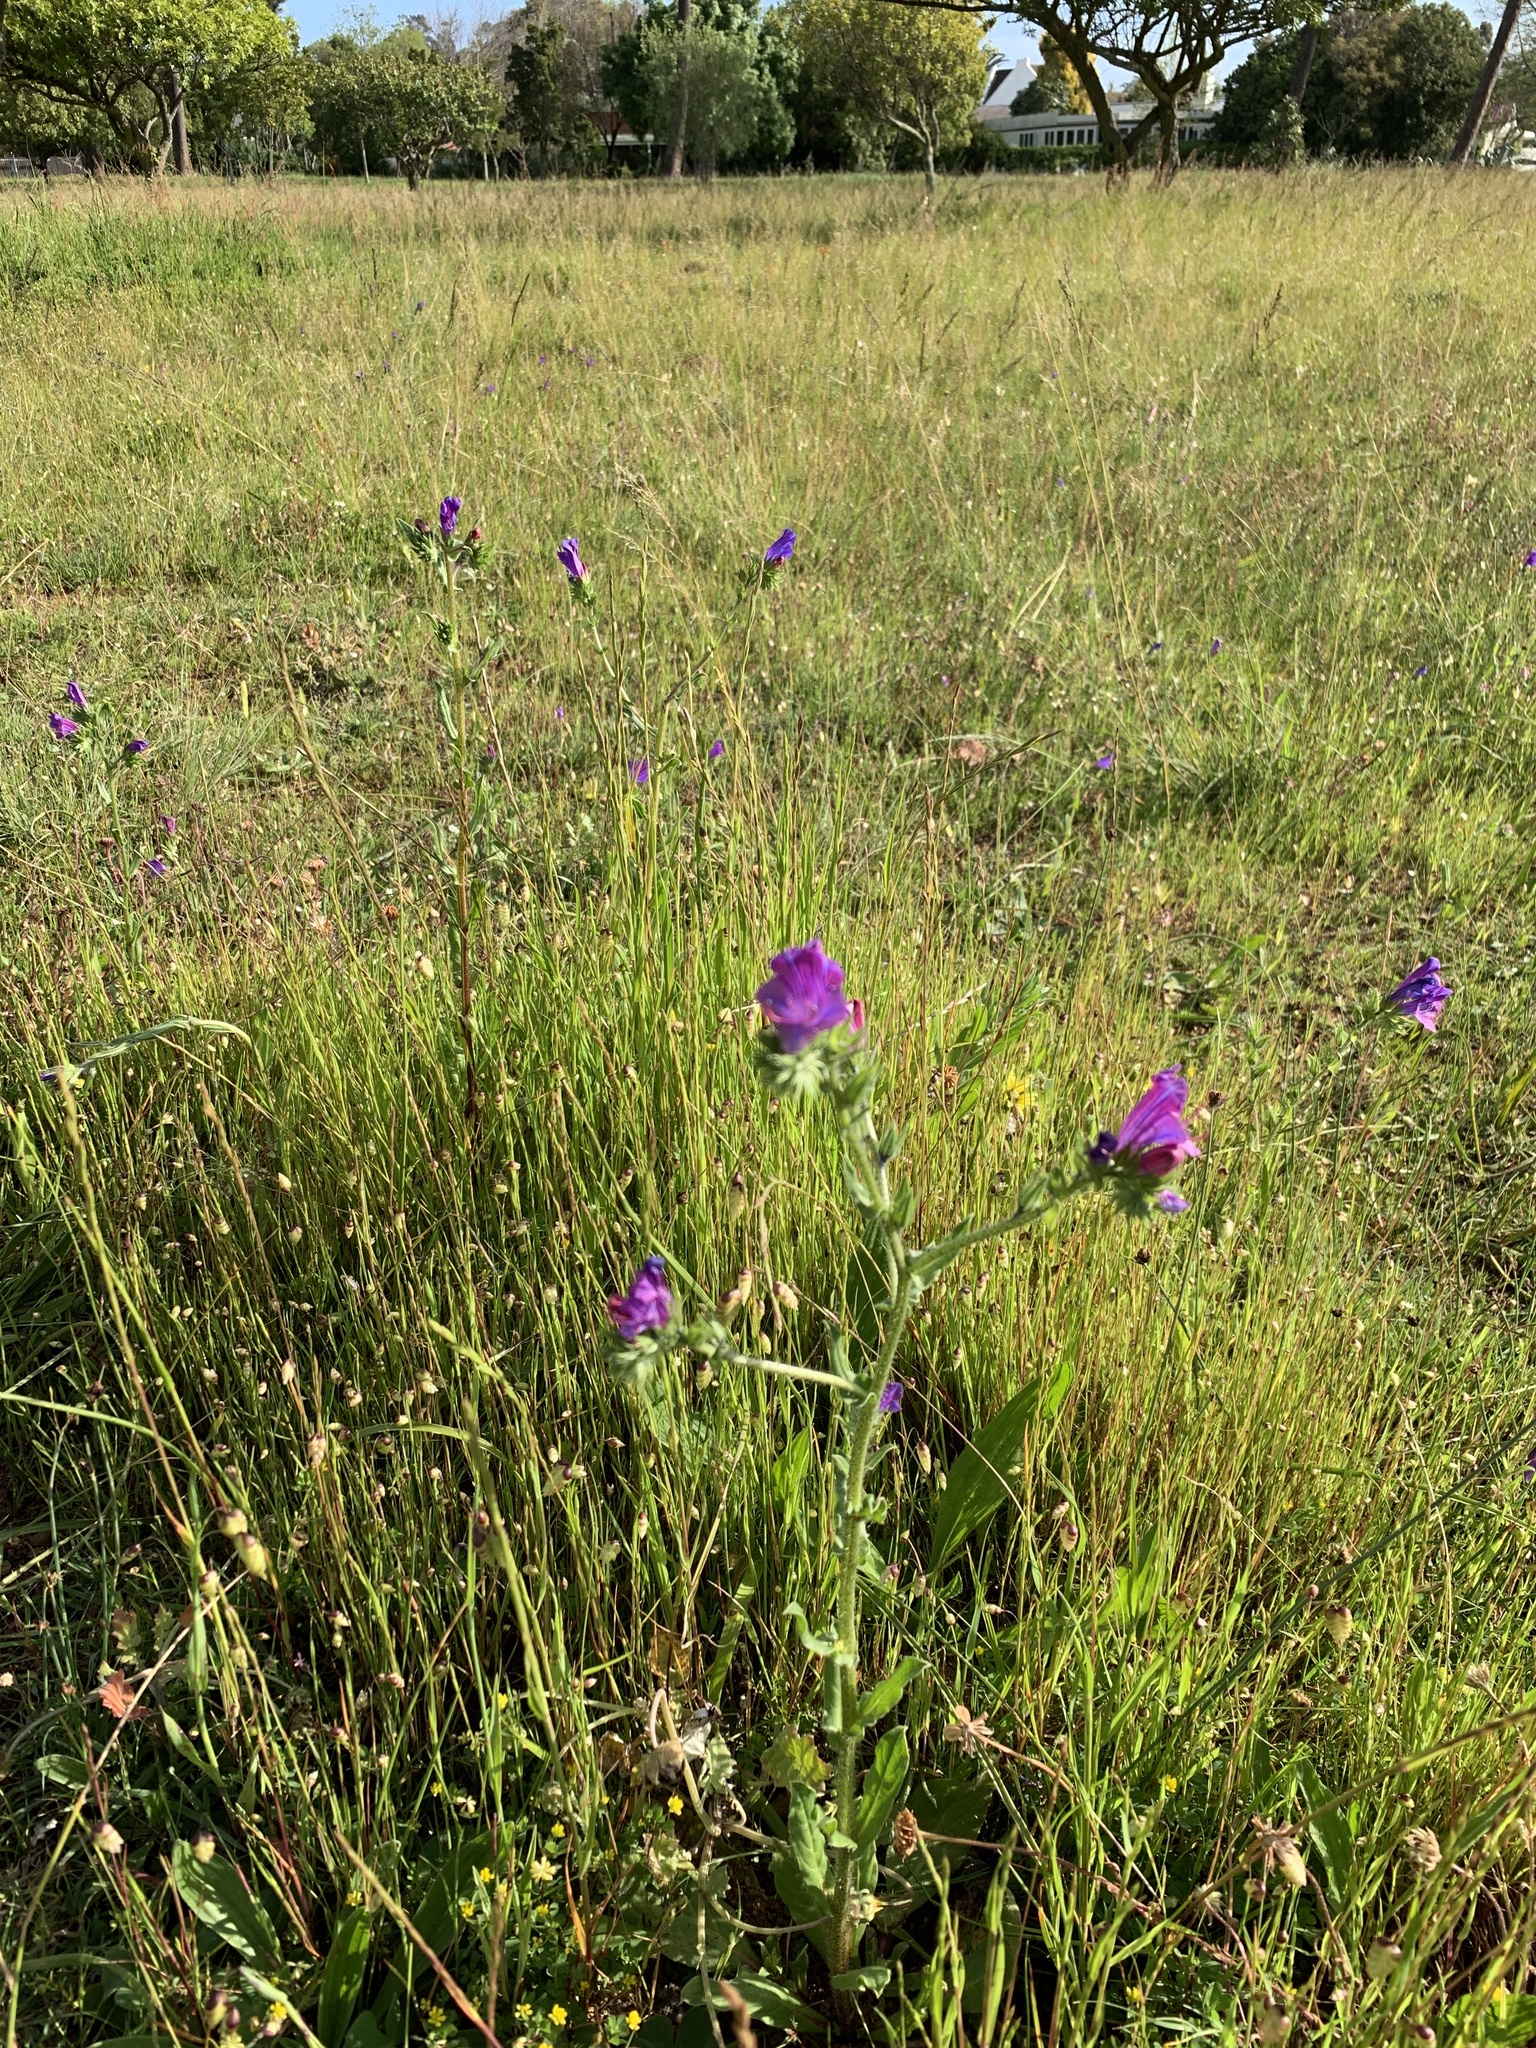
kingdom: Plantae
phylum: Tracheophyta
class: Magnoliopsida
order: Boraginales
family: Boraginaceae
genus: Echium
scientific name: Echium plantagineum
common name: Purple viper's-bugloss
